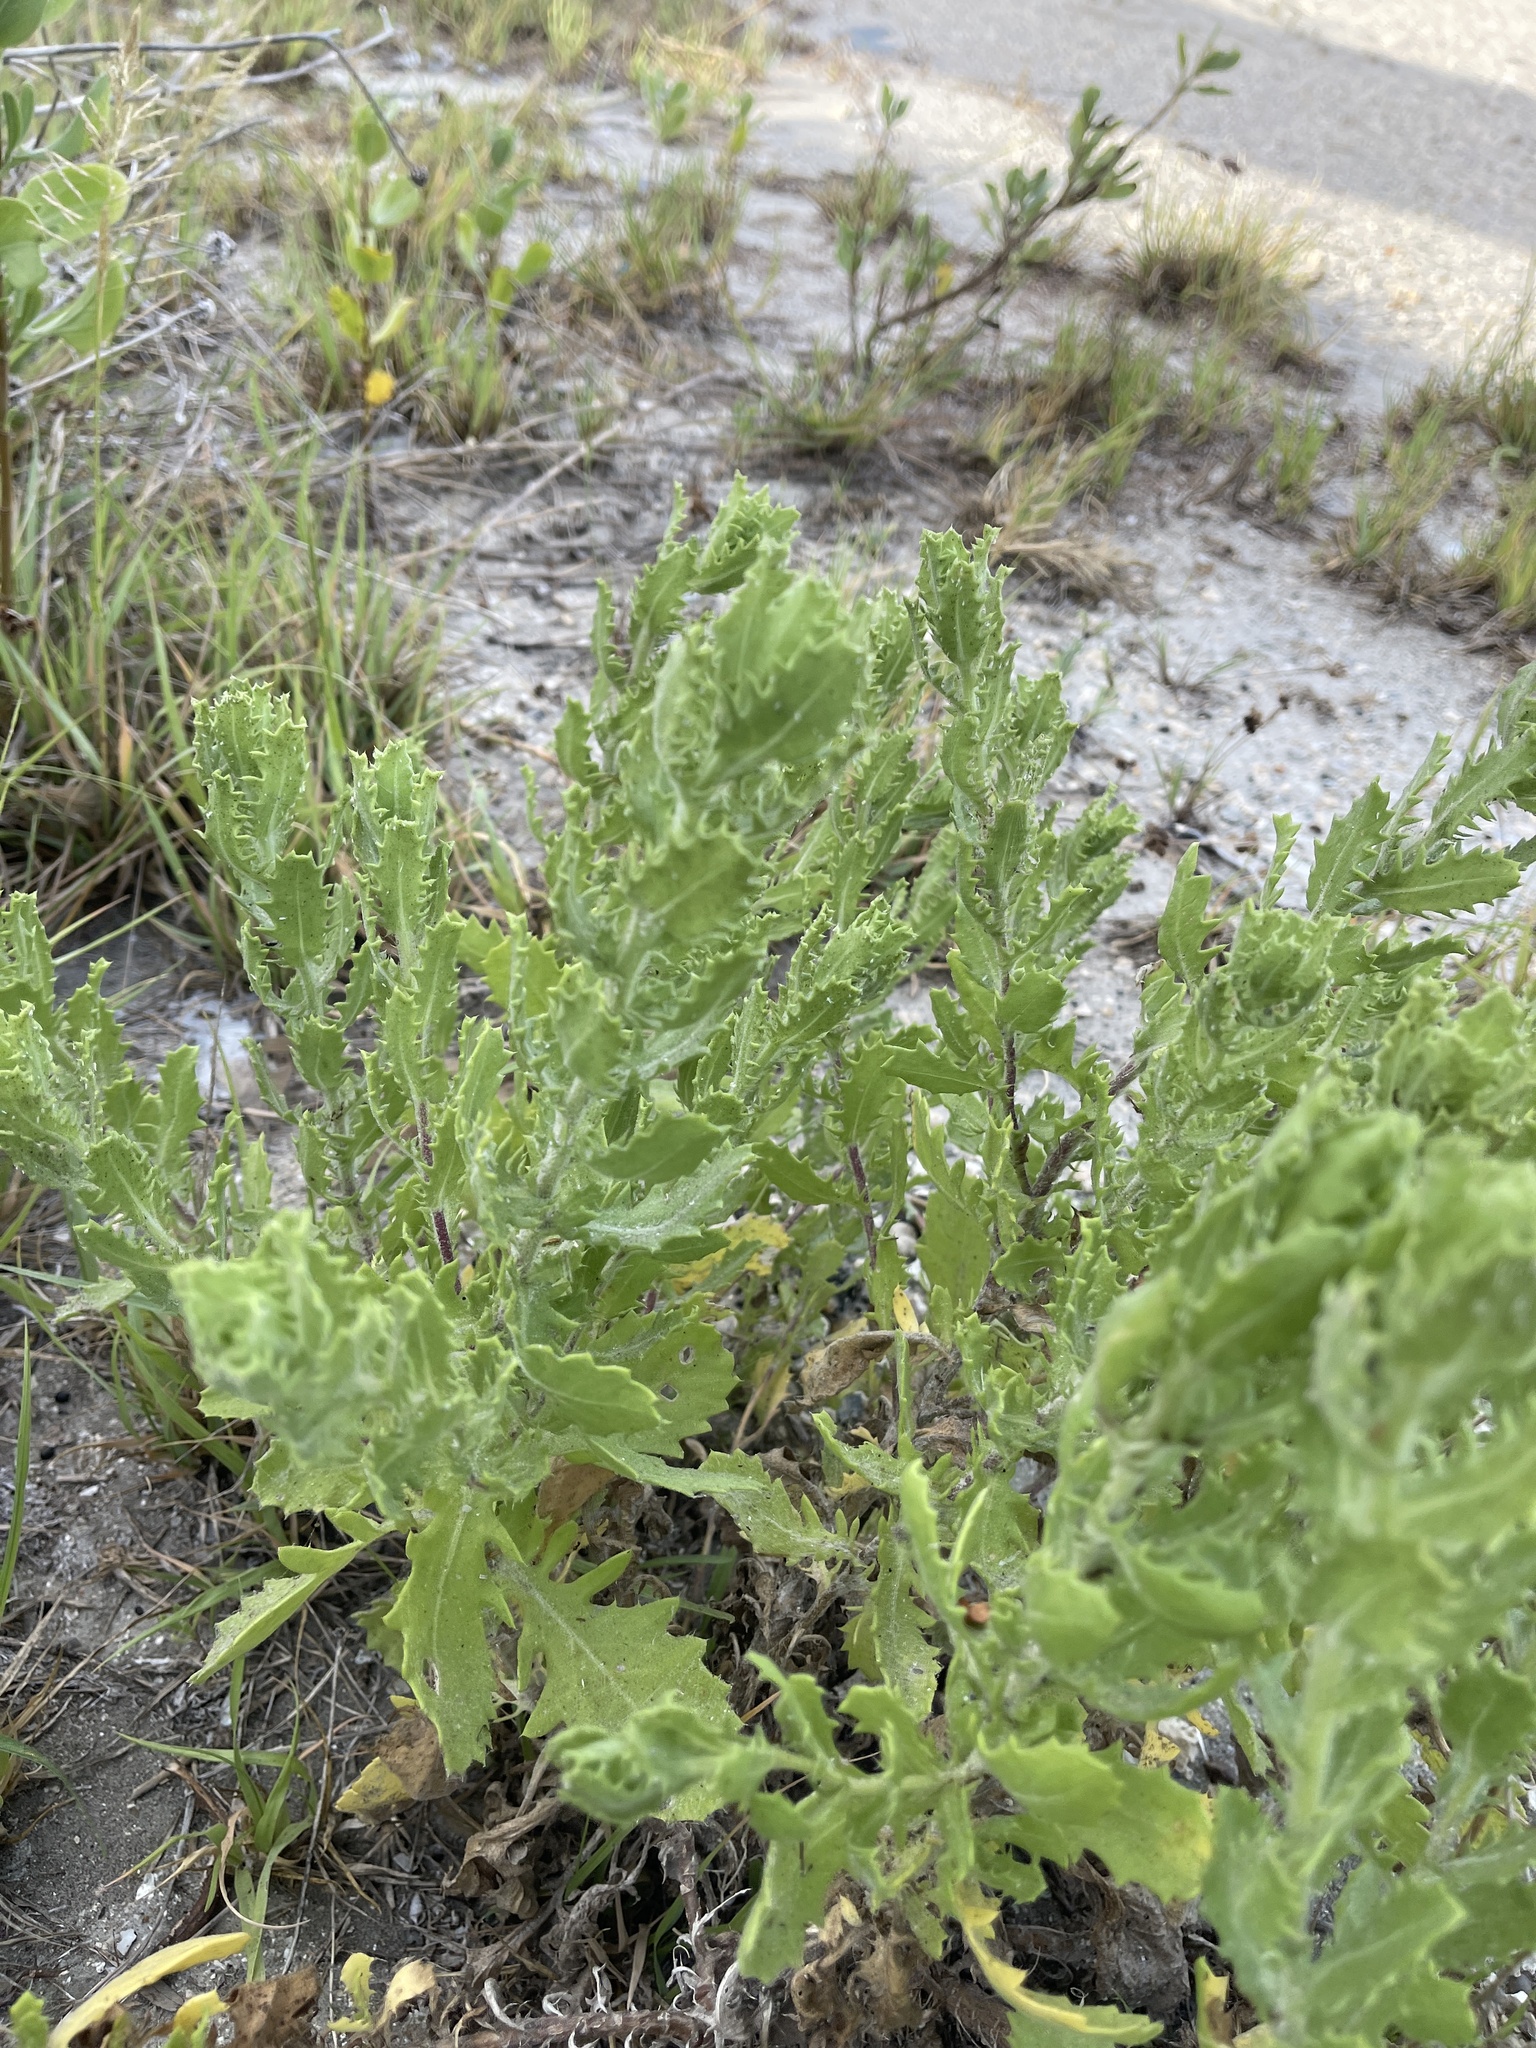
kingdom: Plantae
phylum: Tracheophyta
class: Magnoliopsida
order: Asterales
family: Asteraceae
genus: Rayjacksonia
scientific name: Rayjacksonia phyllocephala
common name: Gulf coast camphor daisy
